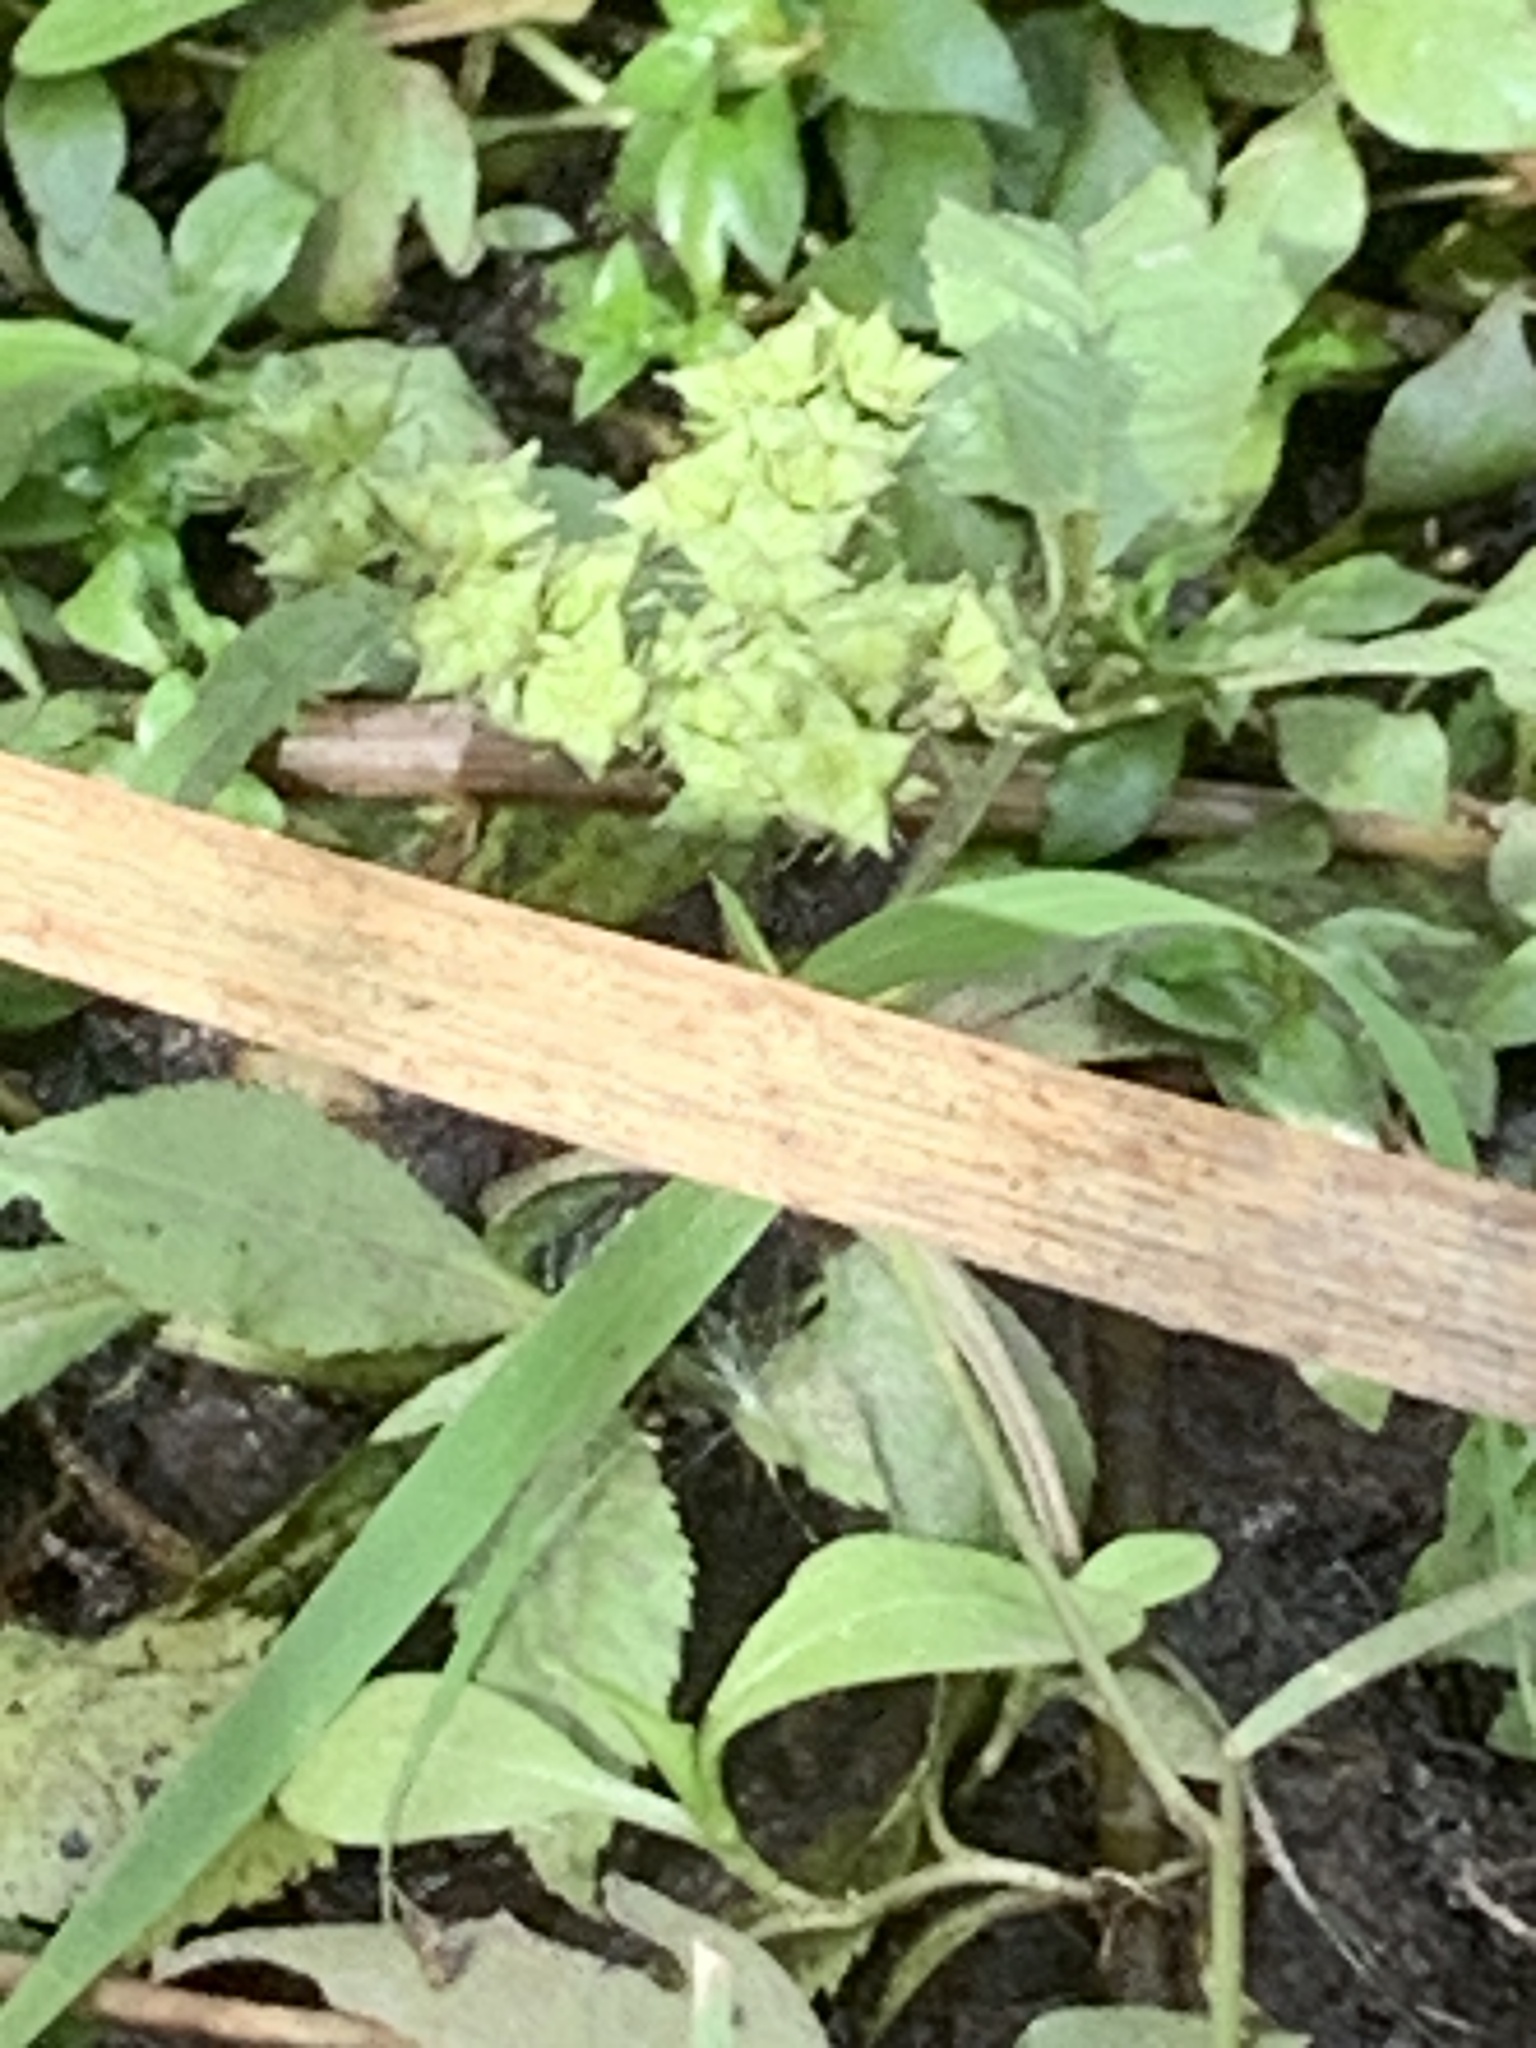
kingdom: Plantae
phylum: Tracheophyta
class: Magnoliopsida
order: Saxifragales
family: Penthoraceae
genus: Penthorum
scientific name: Penthorum sedoides
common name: Ditch stonecrop
